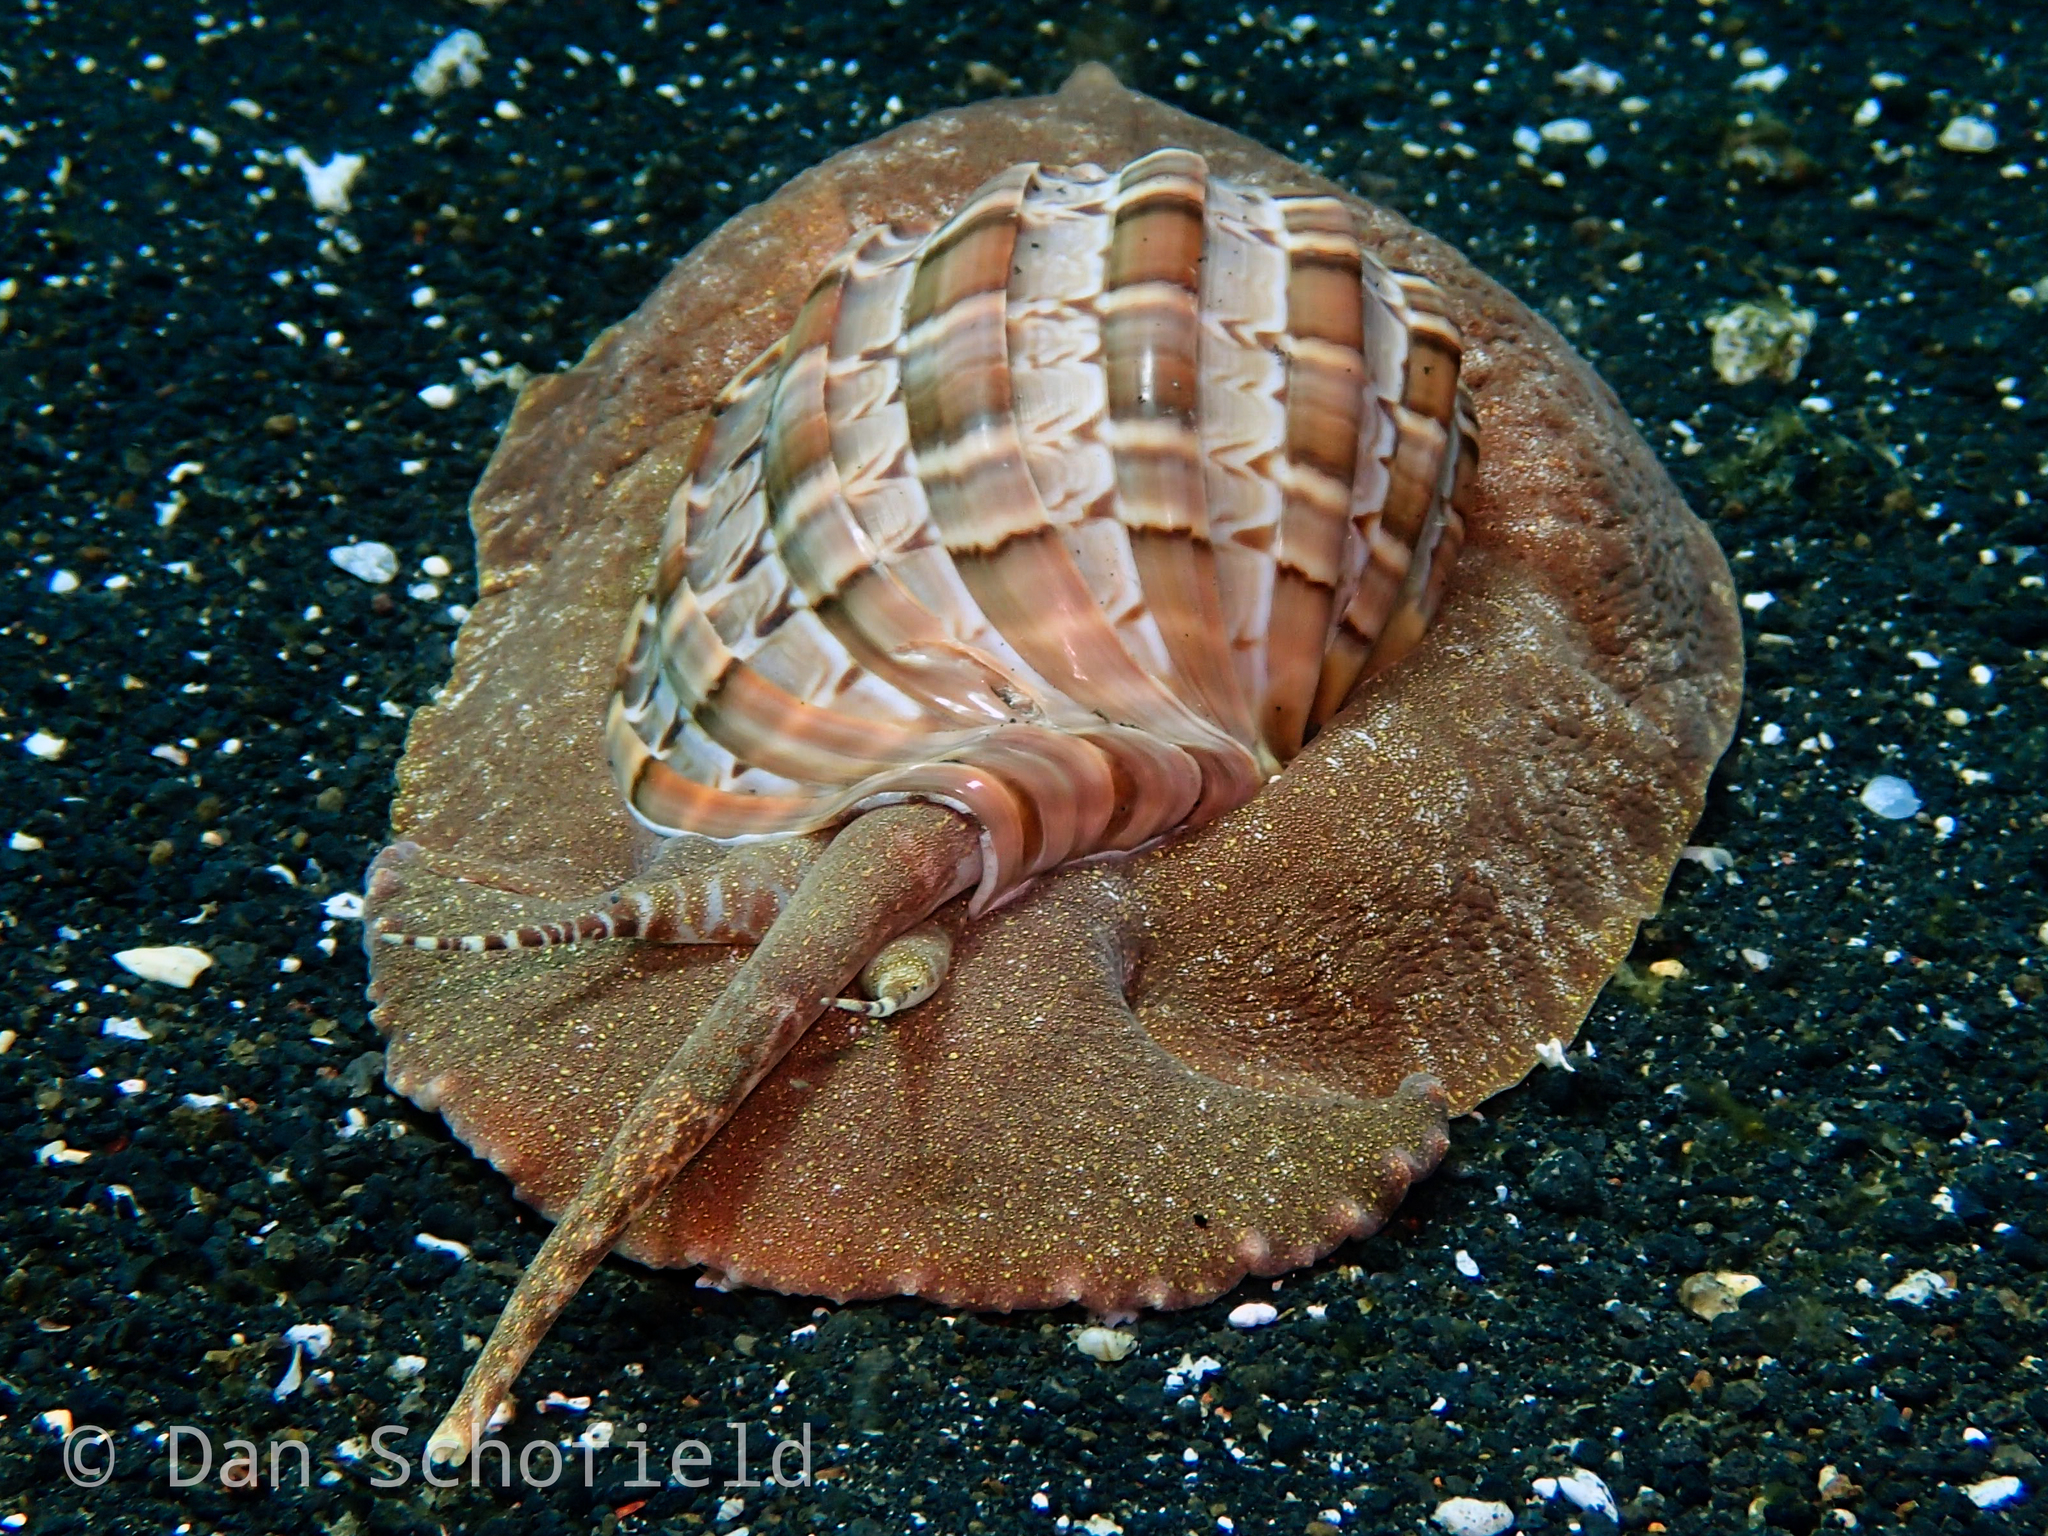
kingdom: Animalia
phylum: Mollusca
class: Gastropoda
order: Neogastropoda
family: Harpidae
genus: Harpa
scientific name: Harpa major
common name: Large harp
